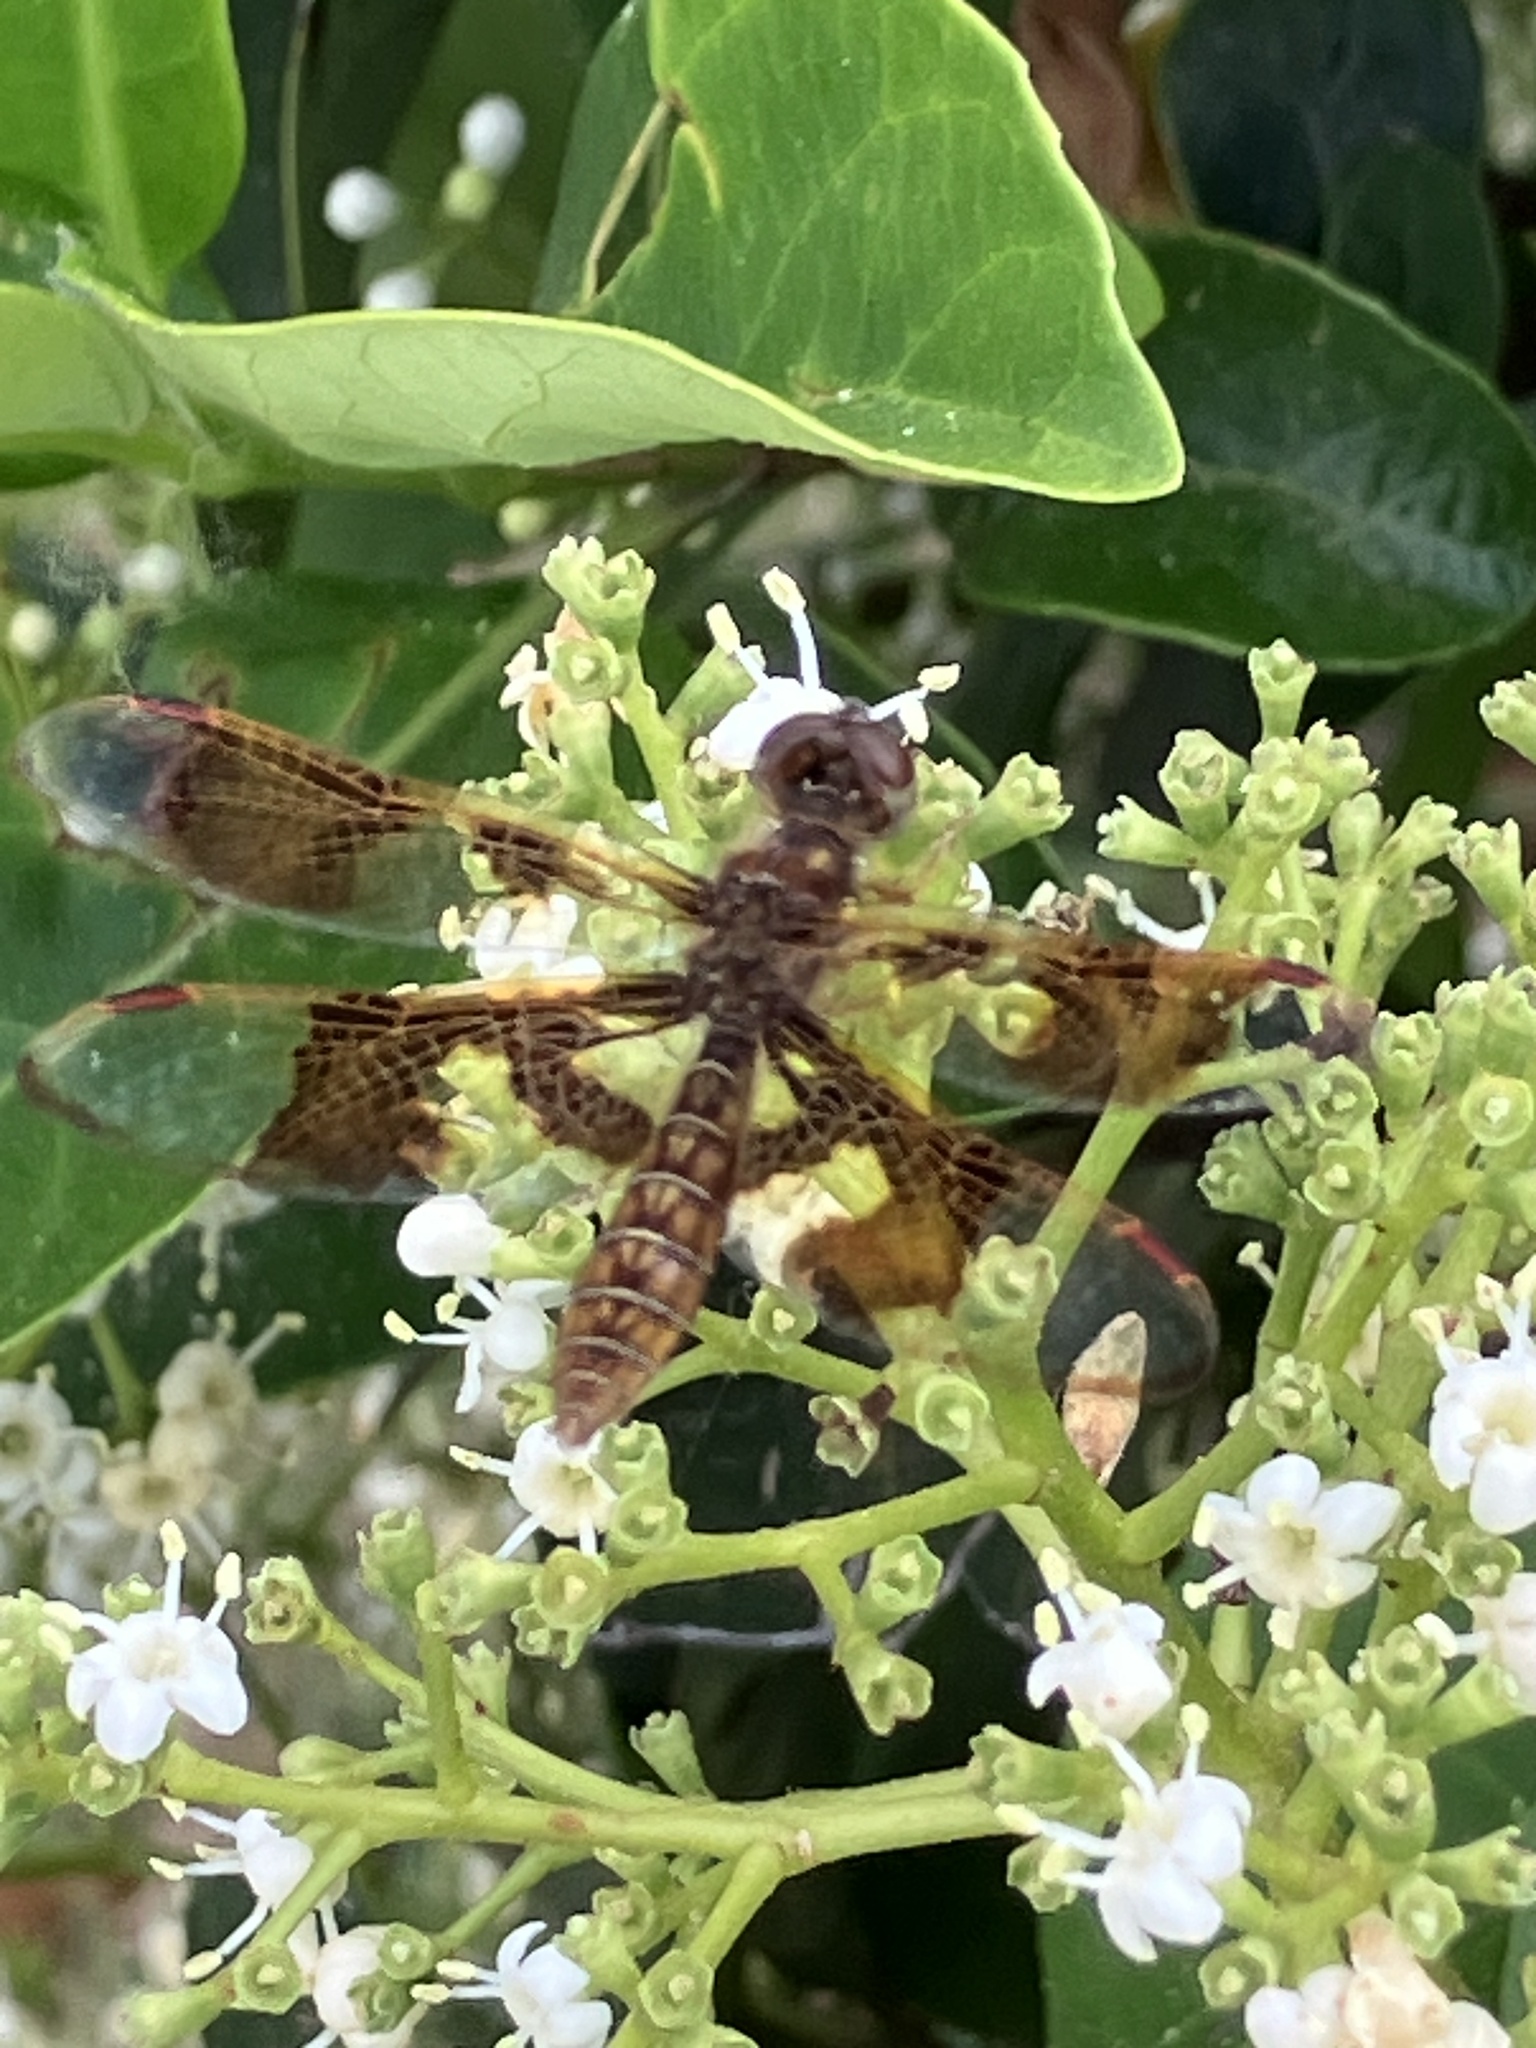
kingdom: Animalia
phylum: Arthropoda
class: Insecta
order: Odonata
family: Libellulidae
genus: Perithemis
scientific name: Perithemis tenera
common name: Eastern amberwing
